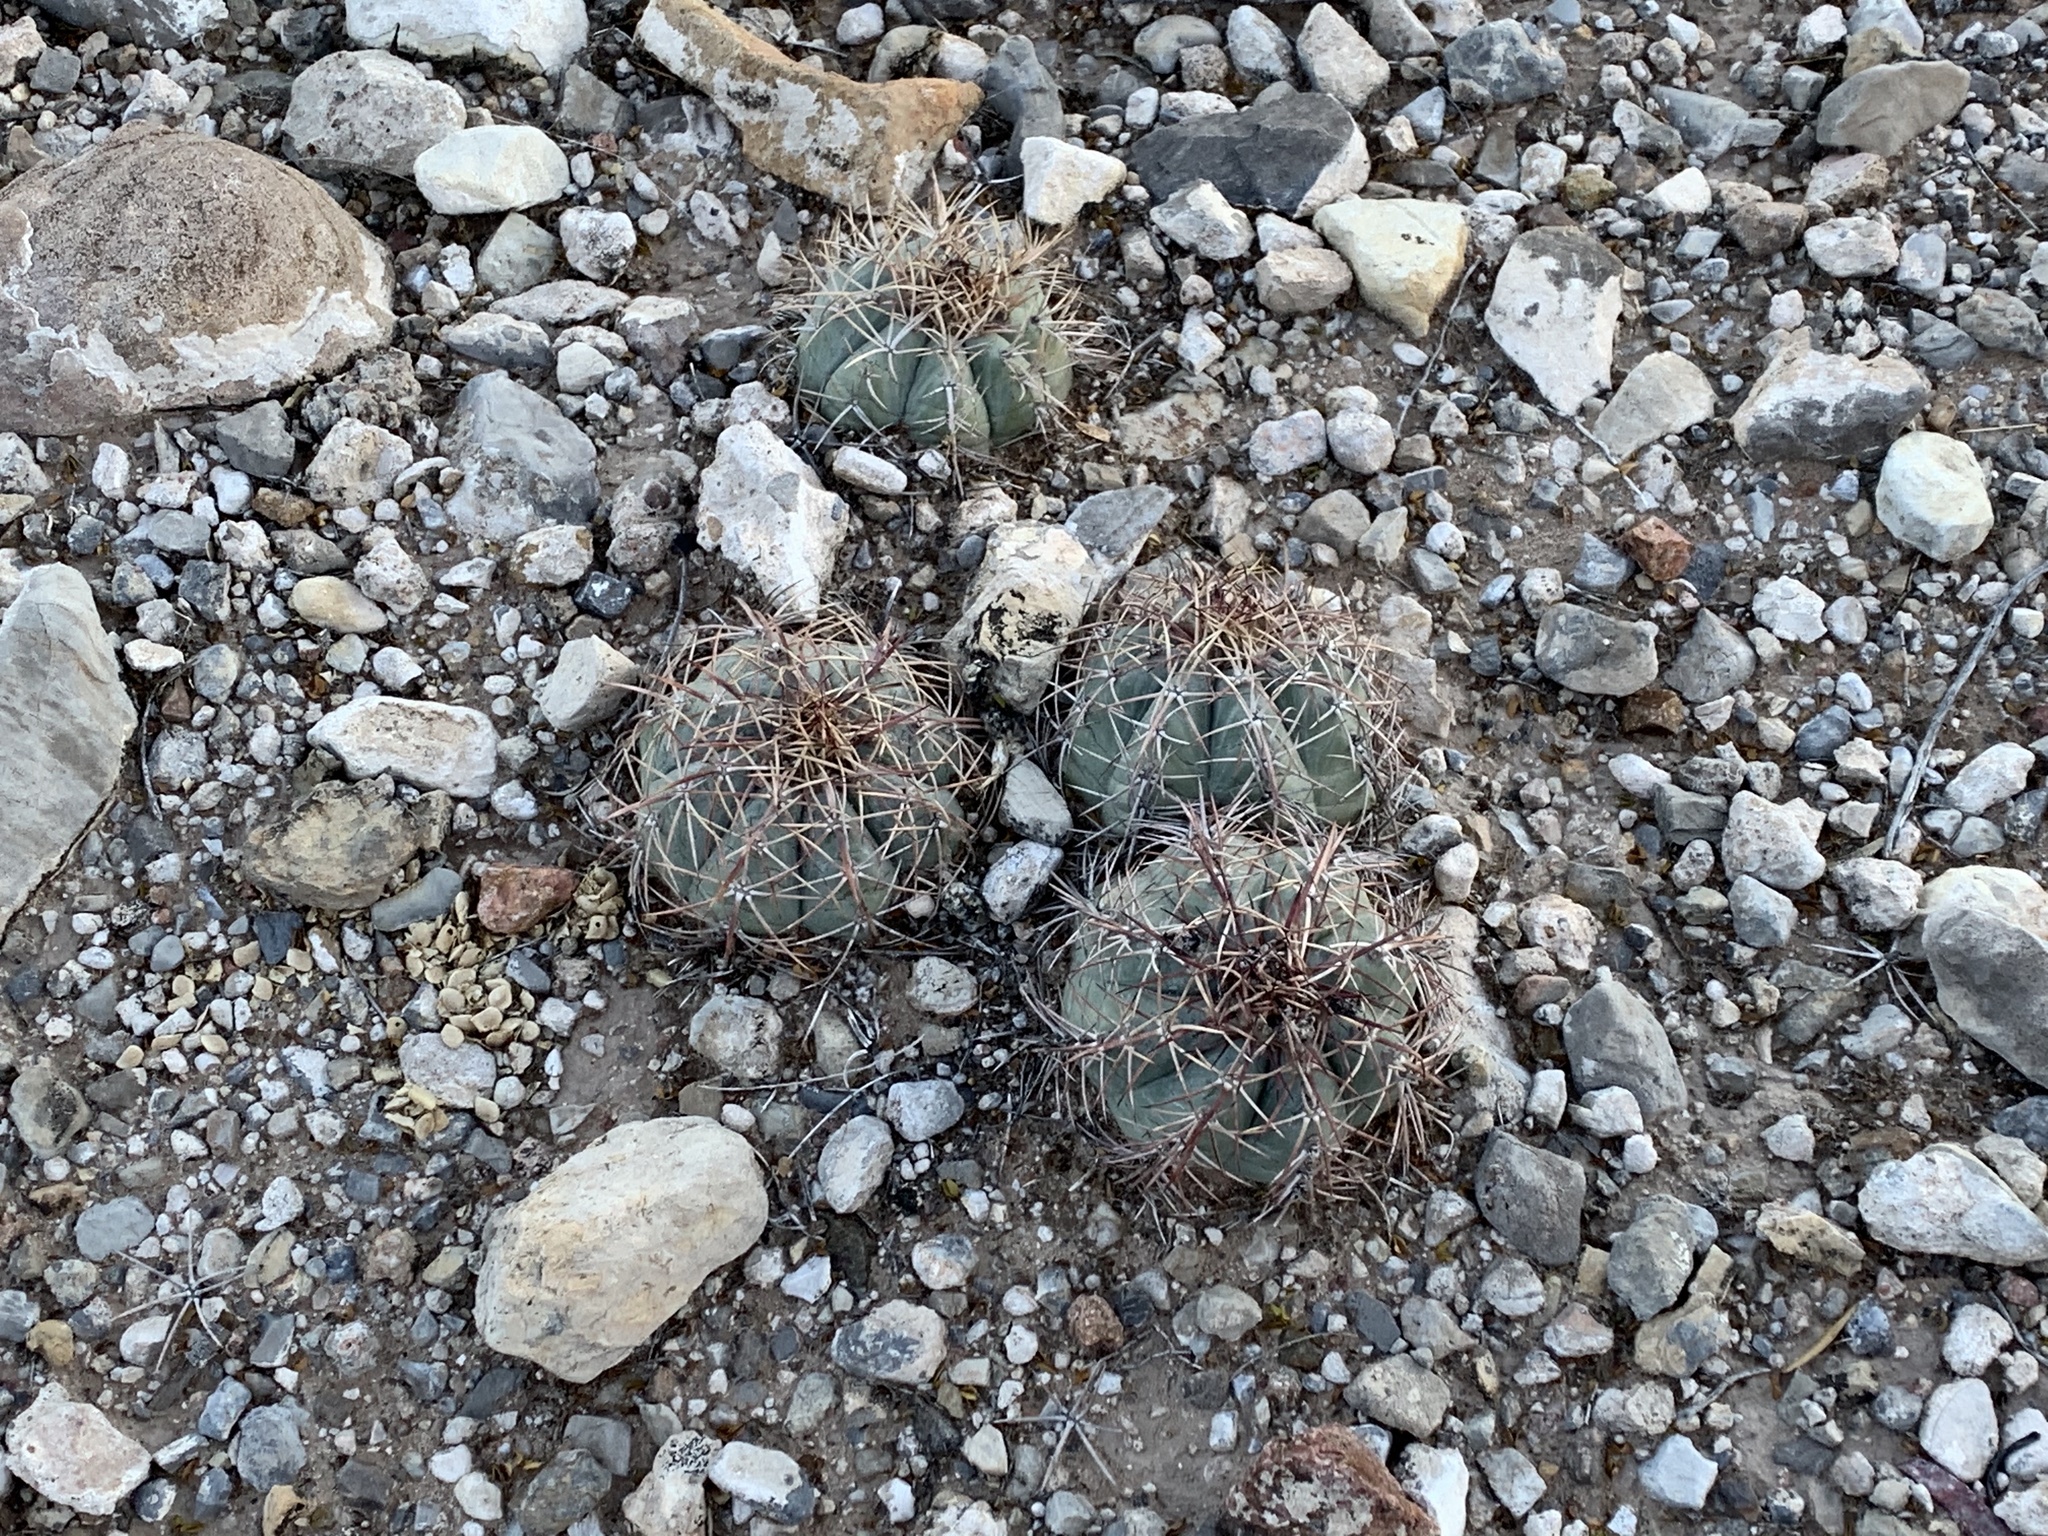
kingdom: Plantae
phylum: Tracheophyta
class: Magnoliopsida
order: Caryophyllales
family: Cactaceae
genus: Echinocactus
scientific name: Echinocactus horizonthalonius
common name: Devilshead
